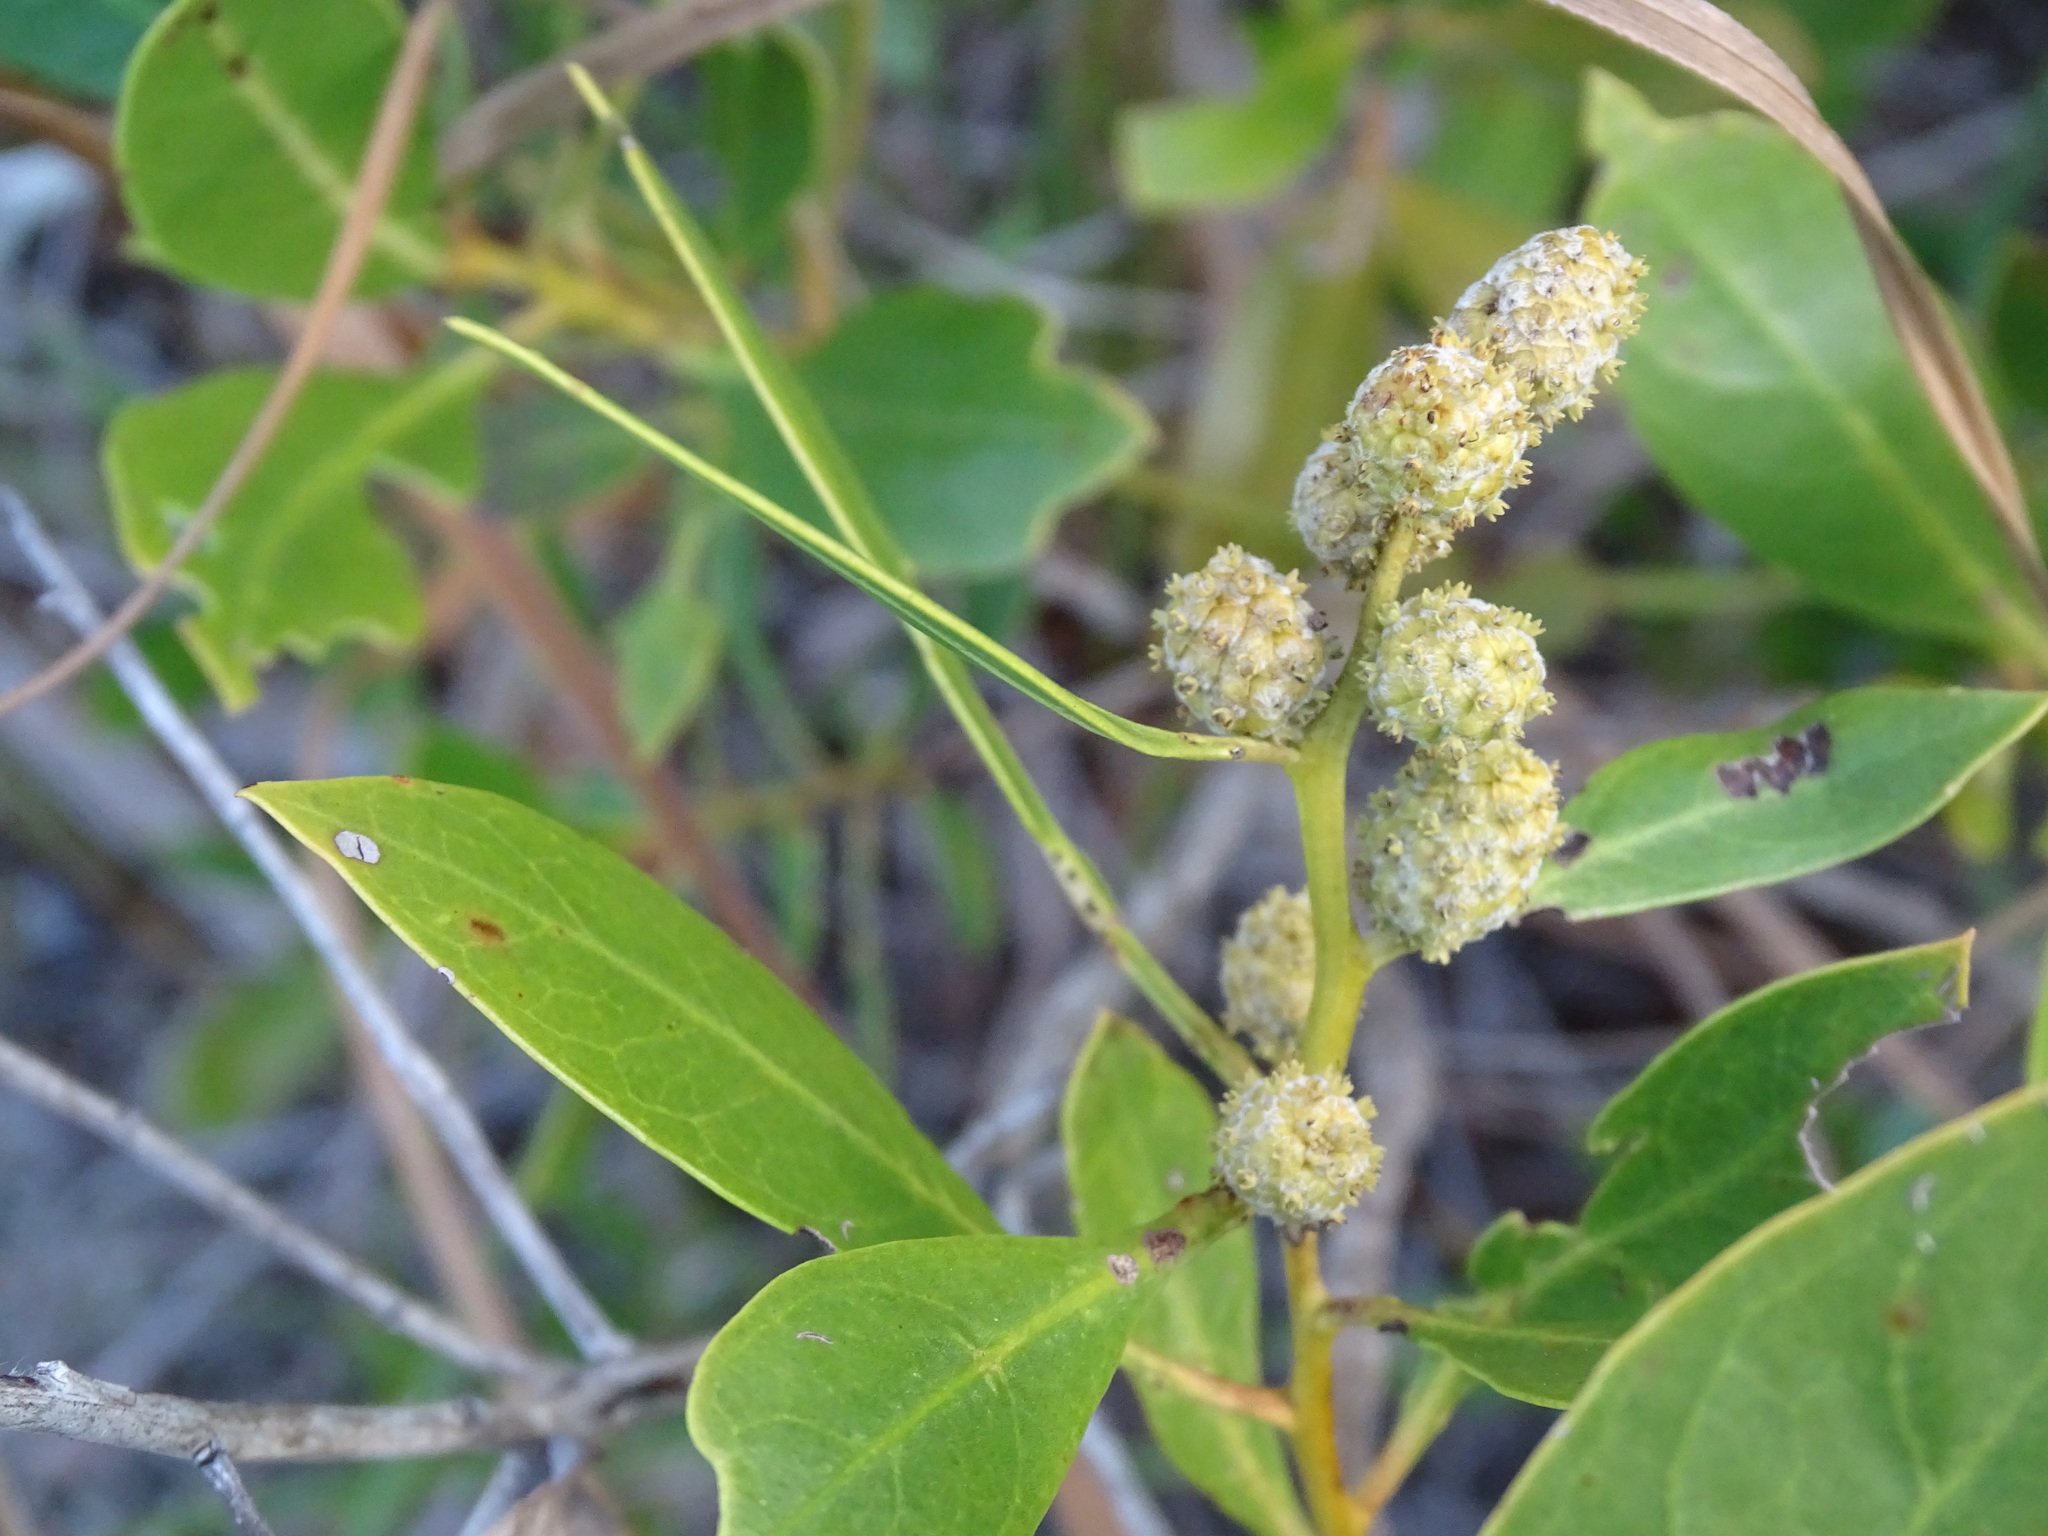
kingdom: Plantae
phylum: Tracheophyta
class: Magnoliopsida
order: Myrtales
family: Combretaceae
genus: Conocarpus
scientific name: Conocarpus erectus
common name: Button mangrove
